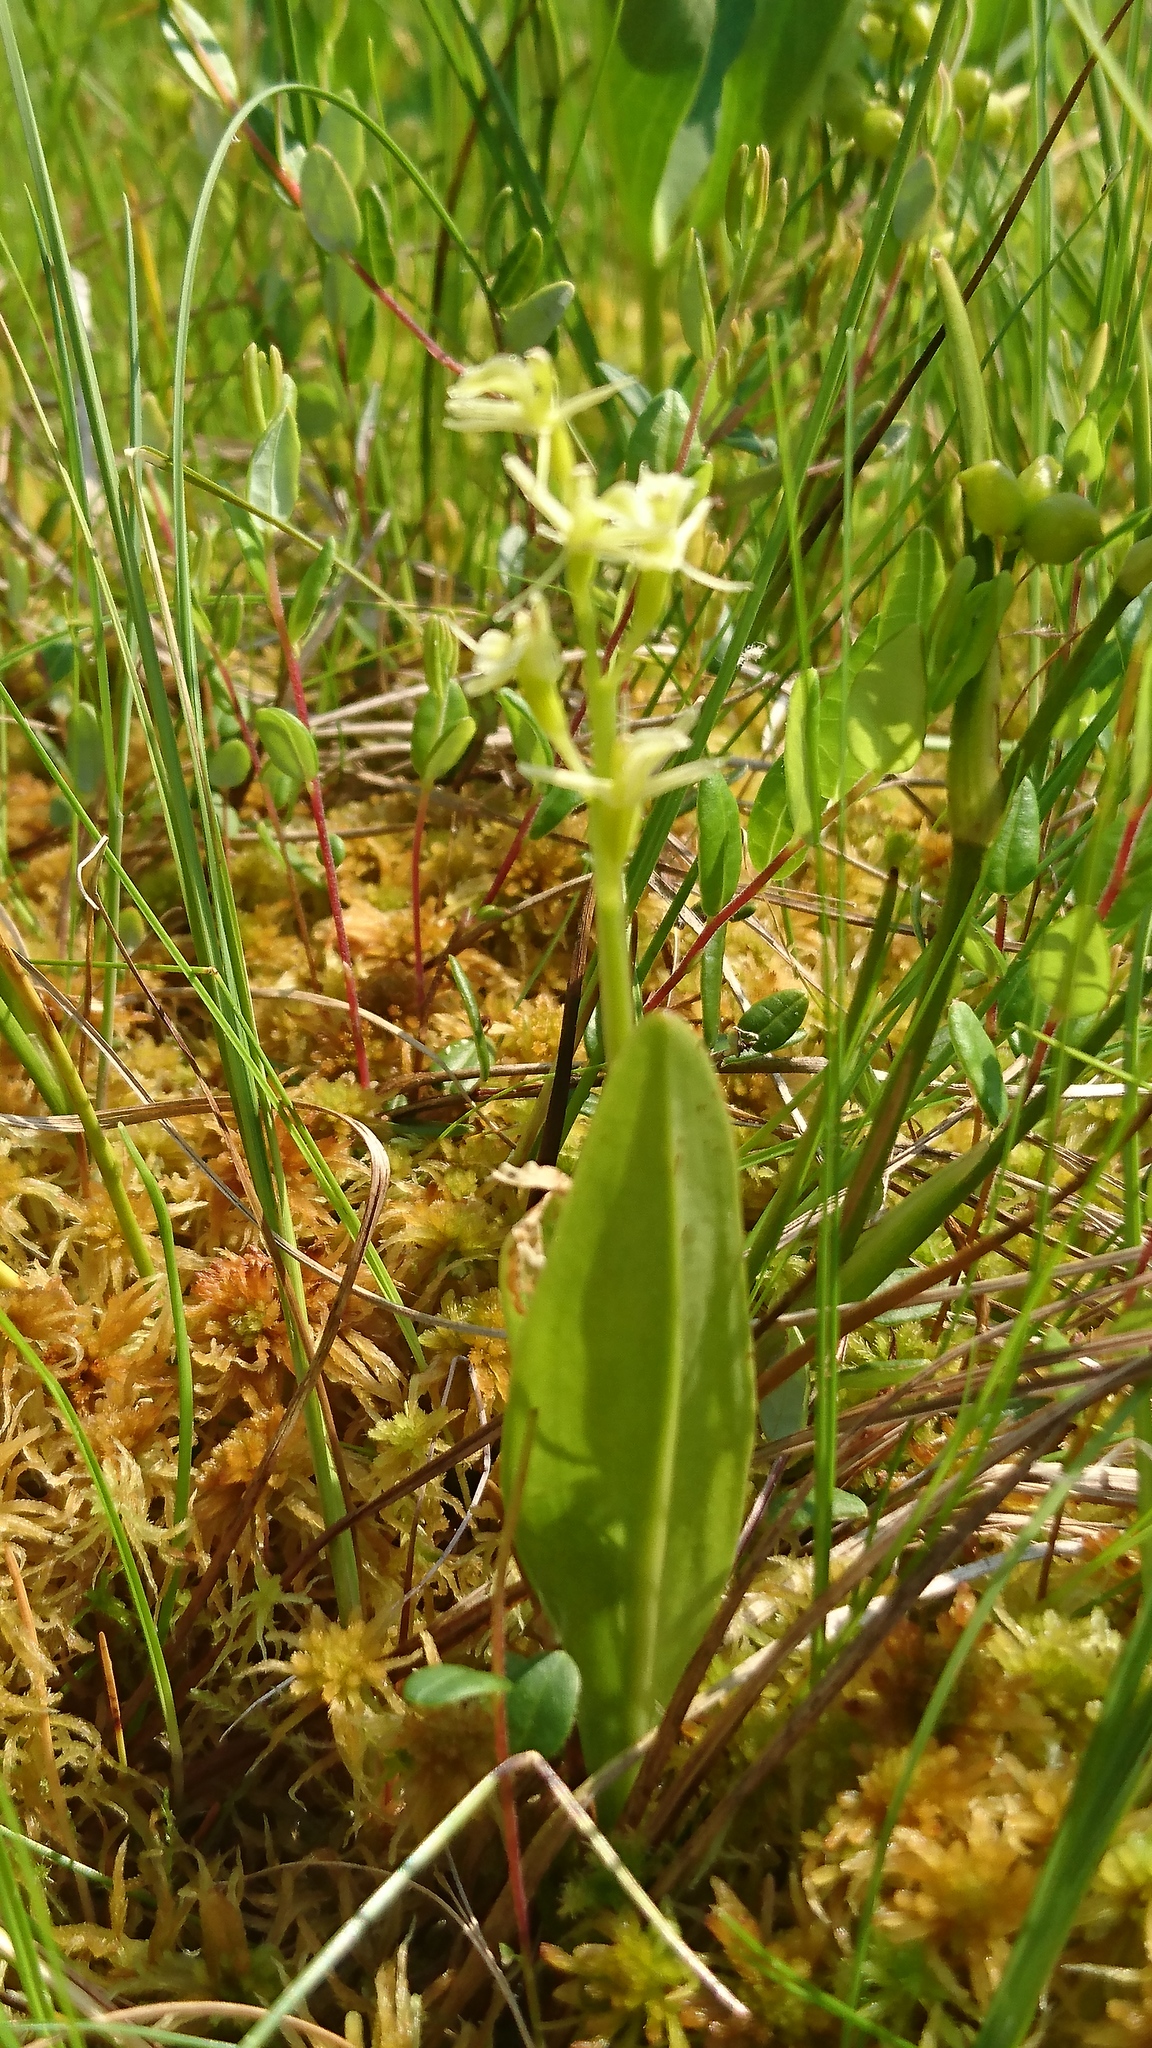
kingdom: Animalia
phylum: Arthropoda
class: Insecta
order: Coleoptera
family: Curculionidae
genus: Liparis
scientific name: Liparis loeselii
